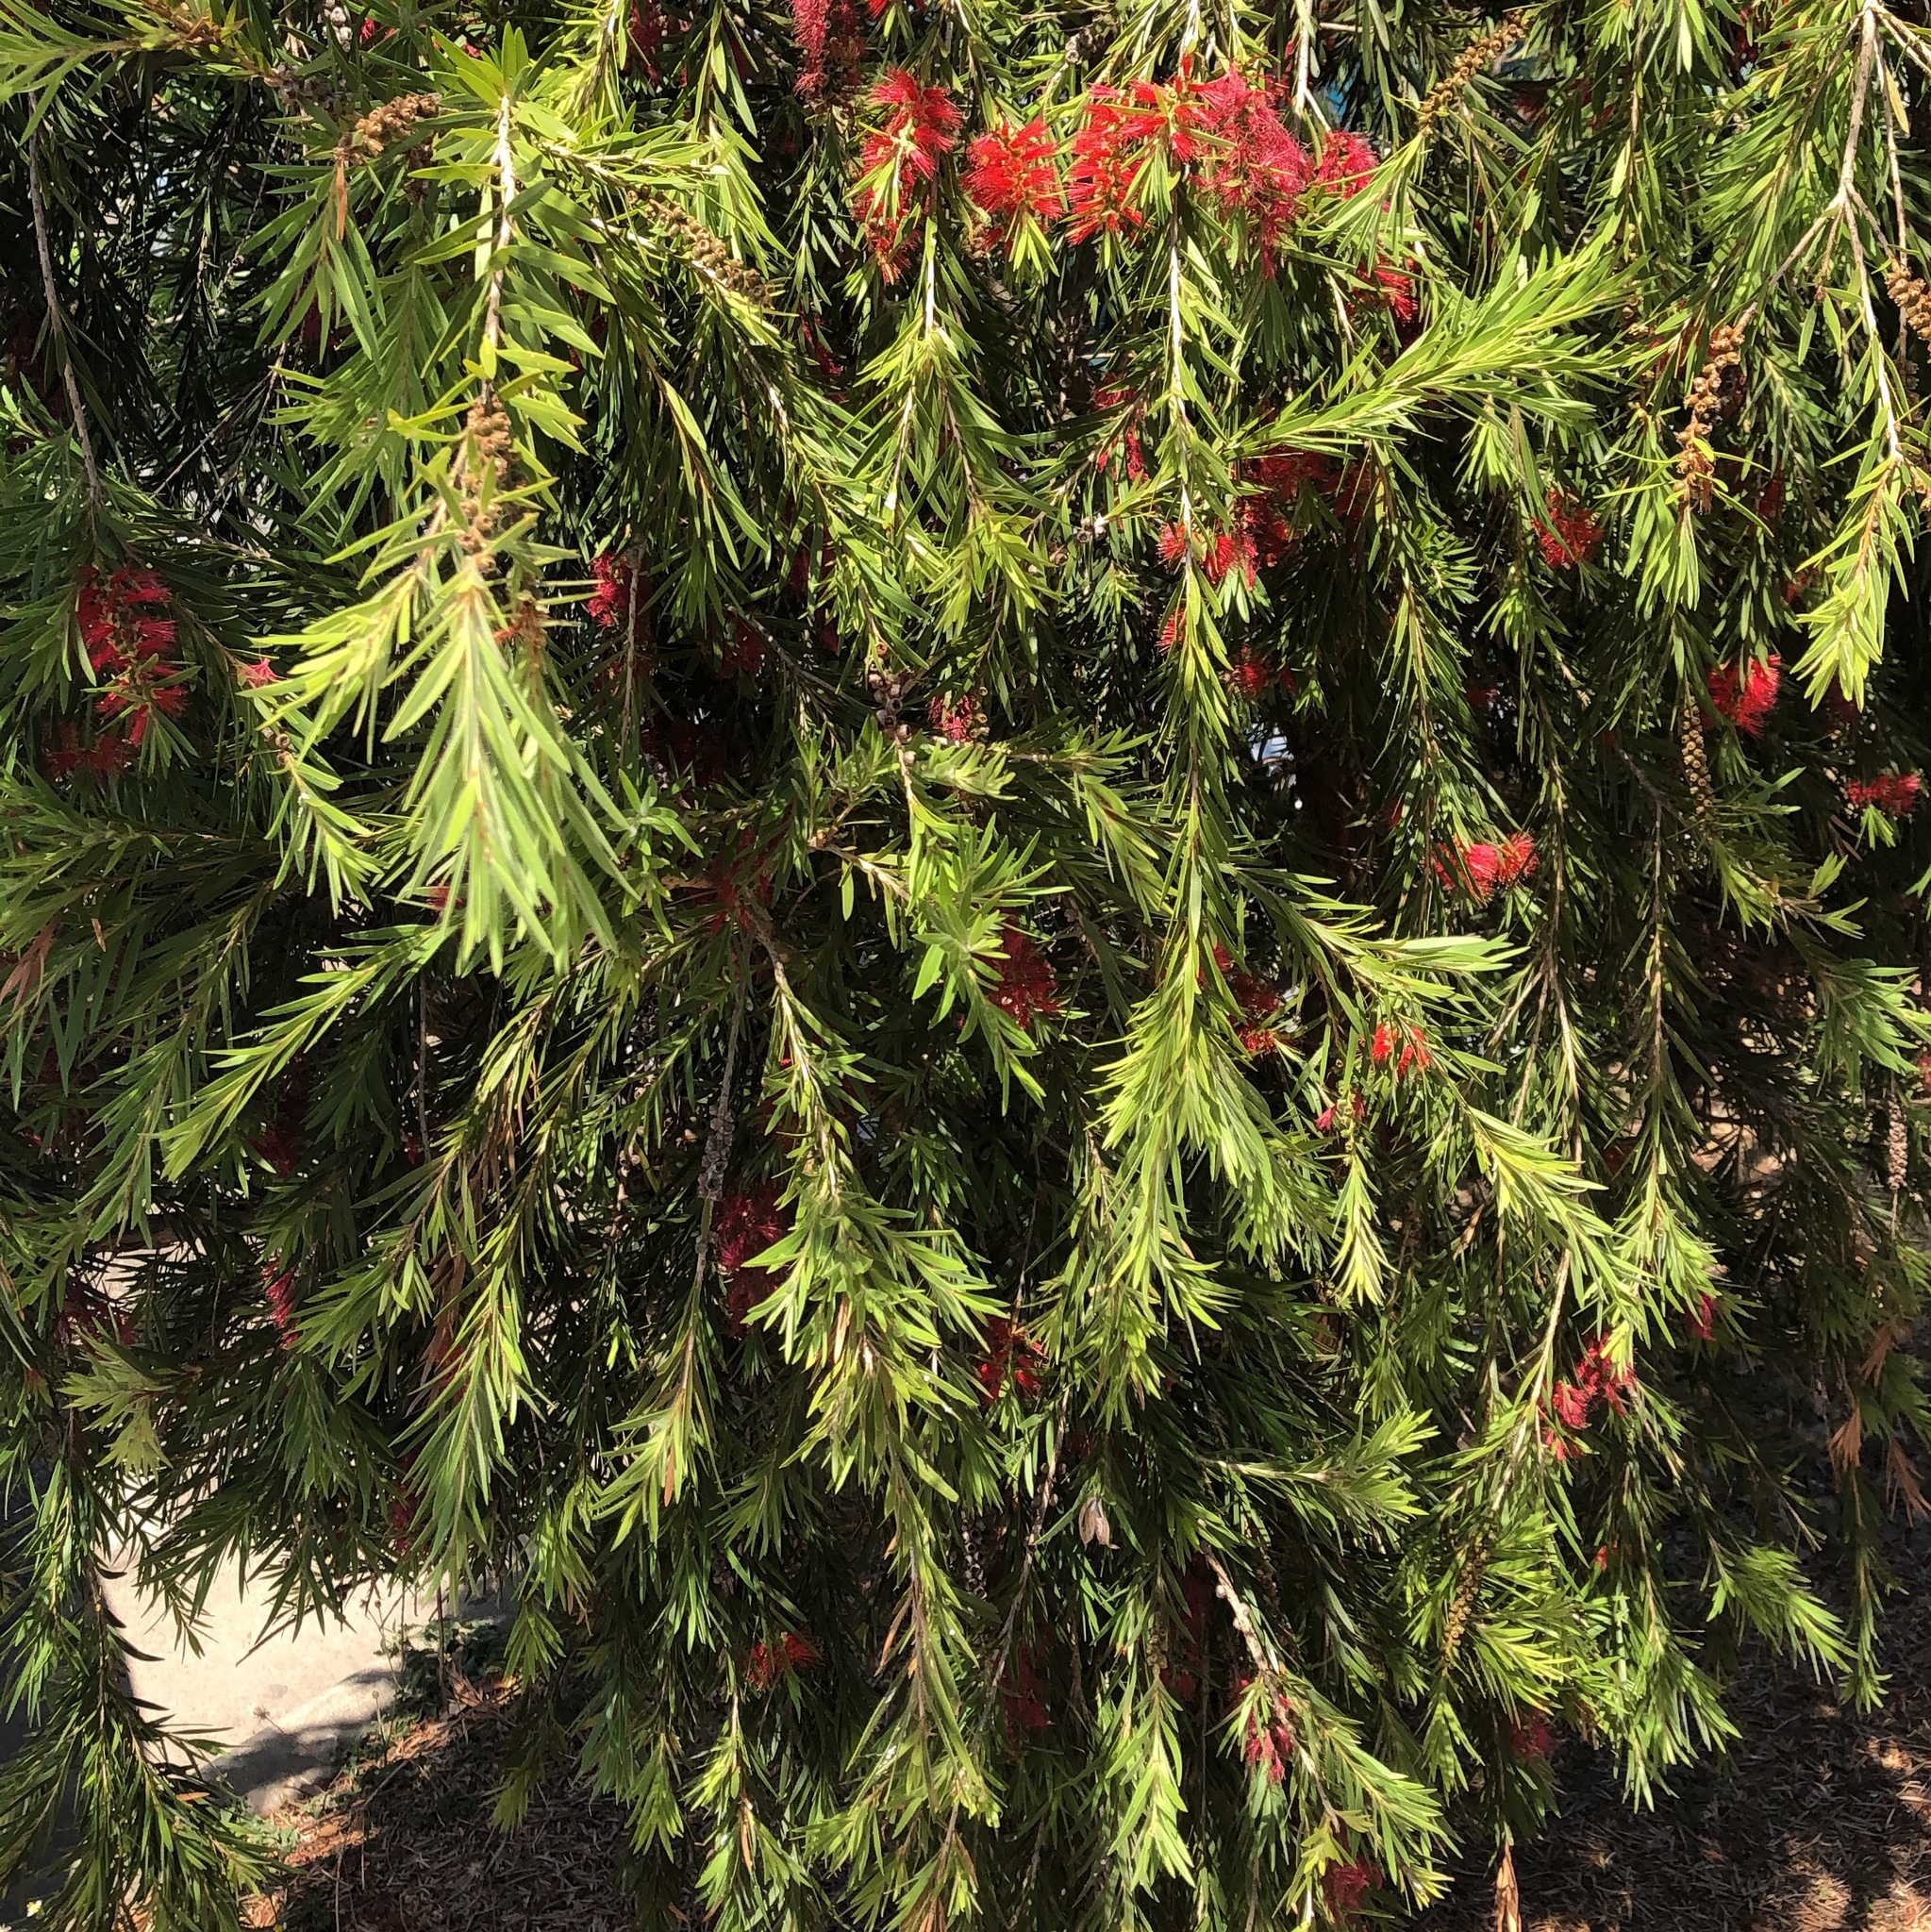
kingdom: Plantae
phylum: Tracheophyta
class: Magnoliopsida
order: Myrtales
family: Myrtaceae
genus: Callistemon
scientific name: Callistemon viminalis
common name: Drooping bottlebrush
